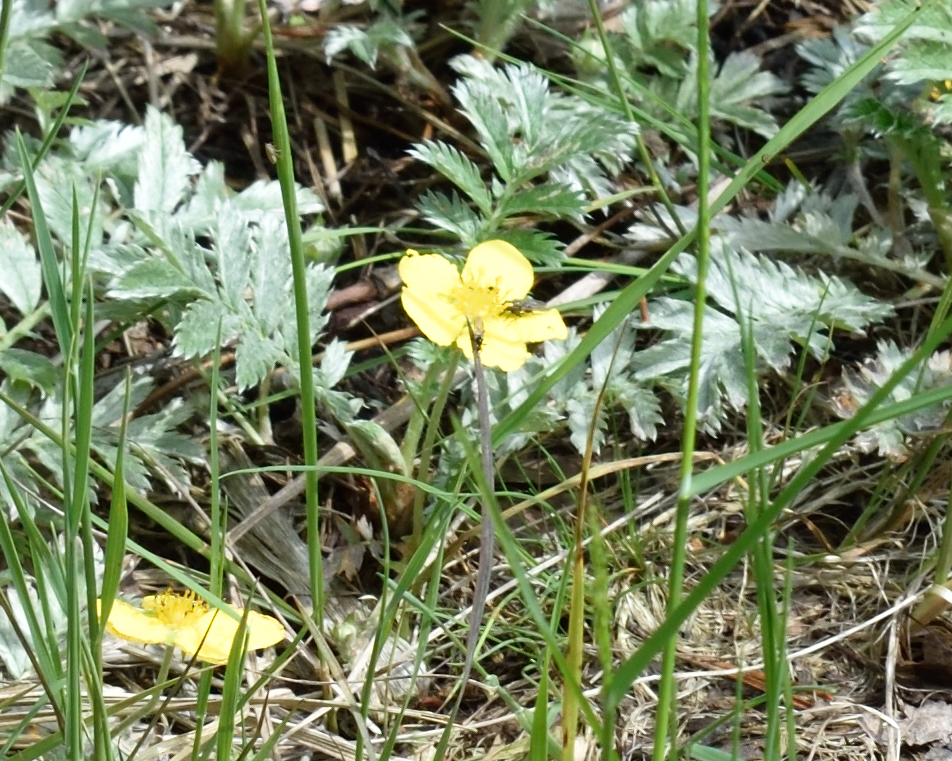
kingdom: Plantae
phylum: Tracheophyta
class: Magnoliopsida
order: Rosales
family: Rosaceae
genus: Argentina
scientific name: Argentina anserina
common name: Common silverweed
